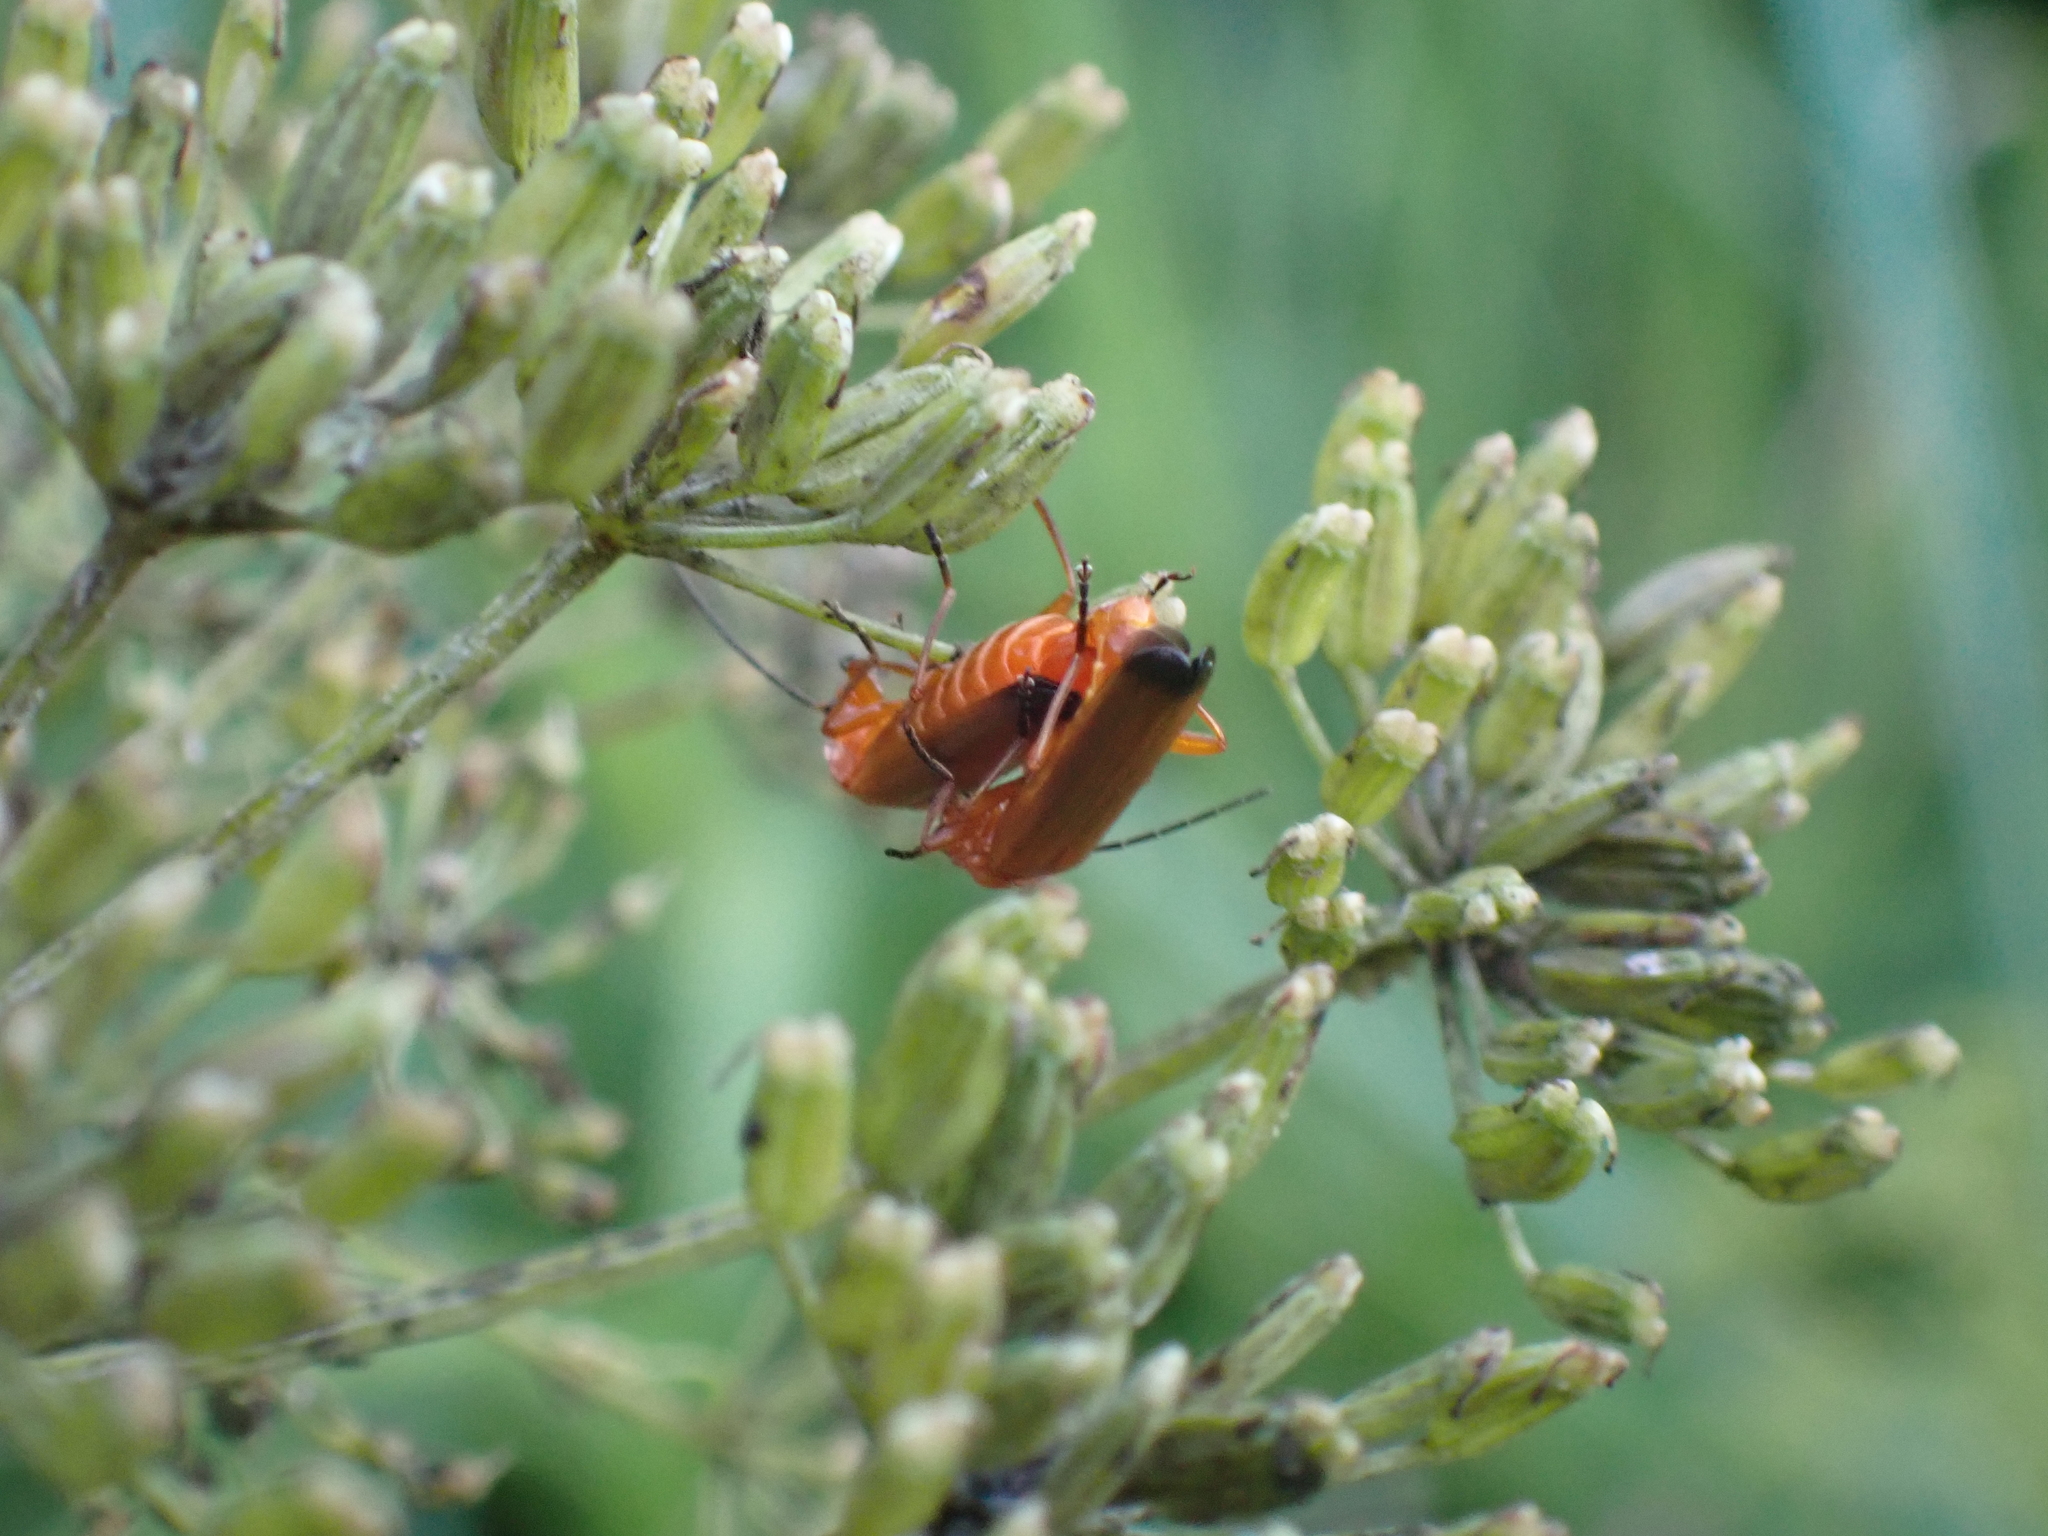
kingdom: Animalia
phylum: Arthropoda
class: Insecta
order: Coleoptera
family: Cantharidae
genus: Rhagonycha
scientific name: Rhagonycha fulva
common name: Common red soldier beetle
